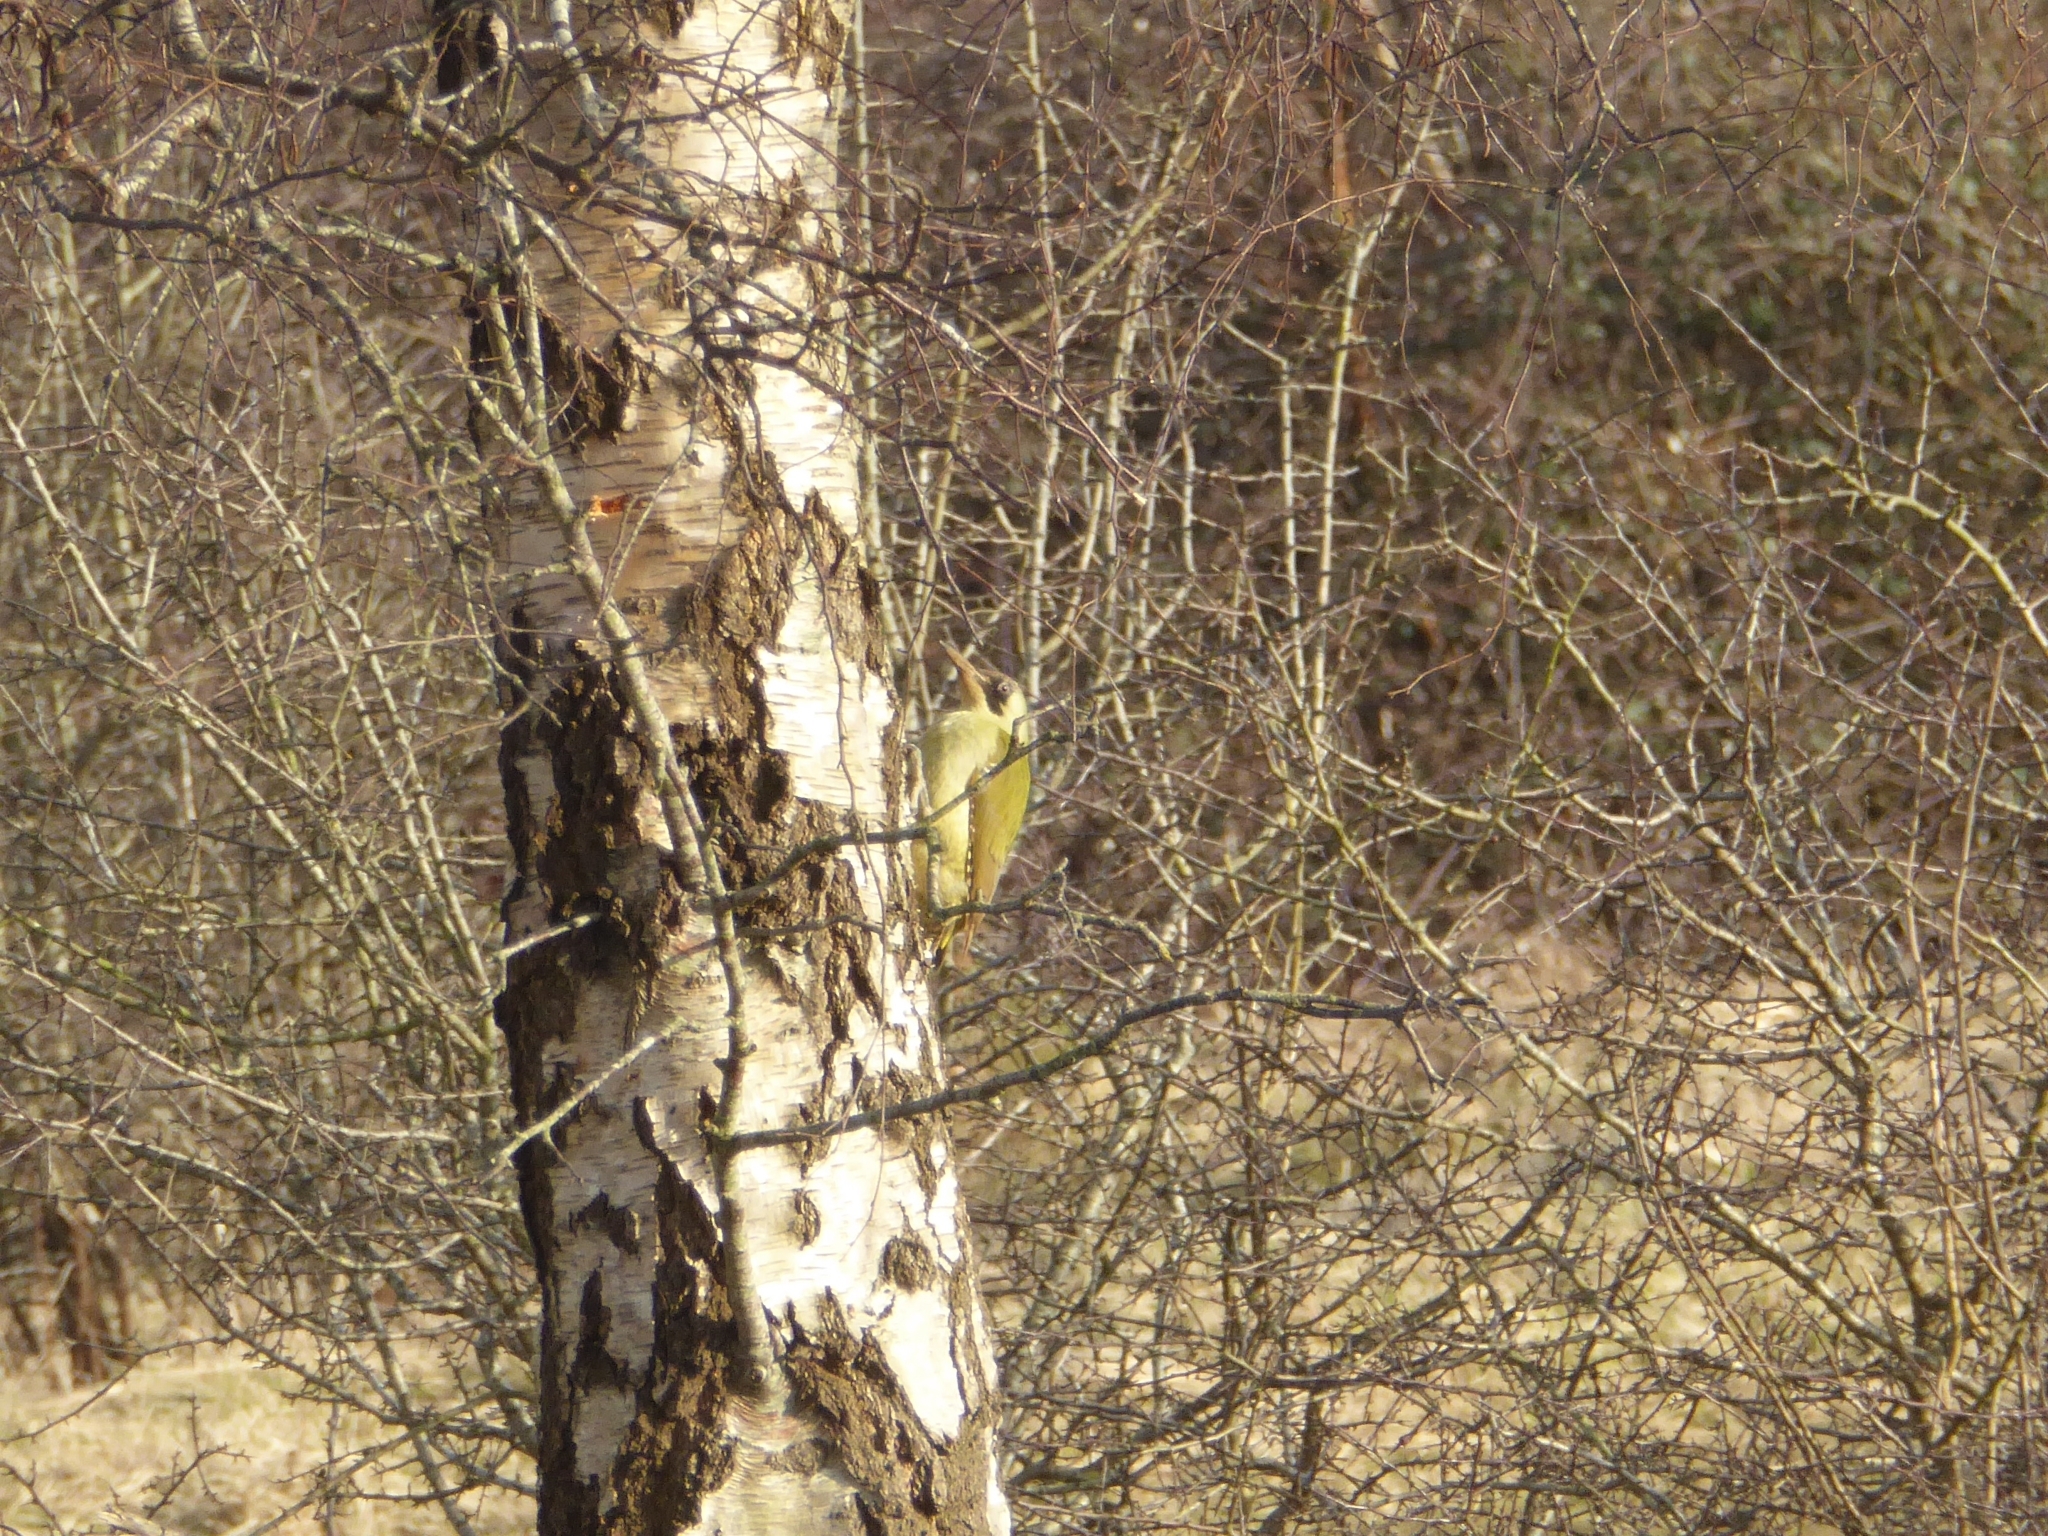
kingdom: Animalia
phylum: Chordata
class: Aves
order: Piciformes
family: Picidae
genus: Picus
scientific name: Picus viridis
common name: European green woodpecker
